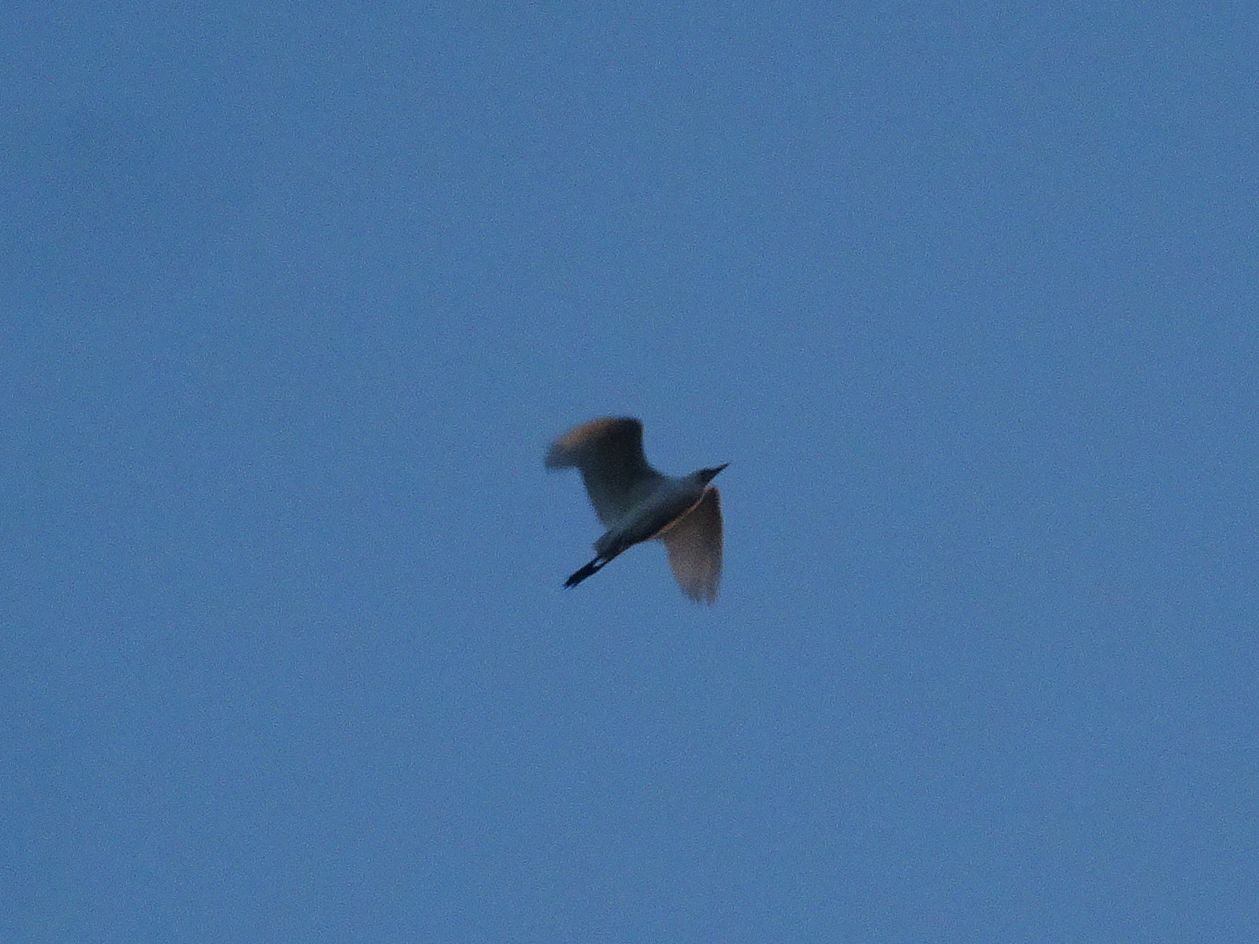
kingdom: Animalia
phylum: Chordata
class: Aves
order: Pelecaniformes
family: Ardeidae
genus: Bubulcus
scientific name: Bubulcus ibis
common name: Cattle egret
